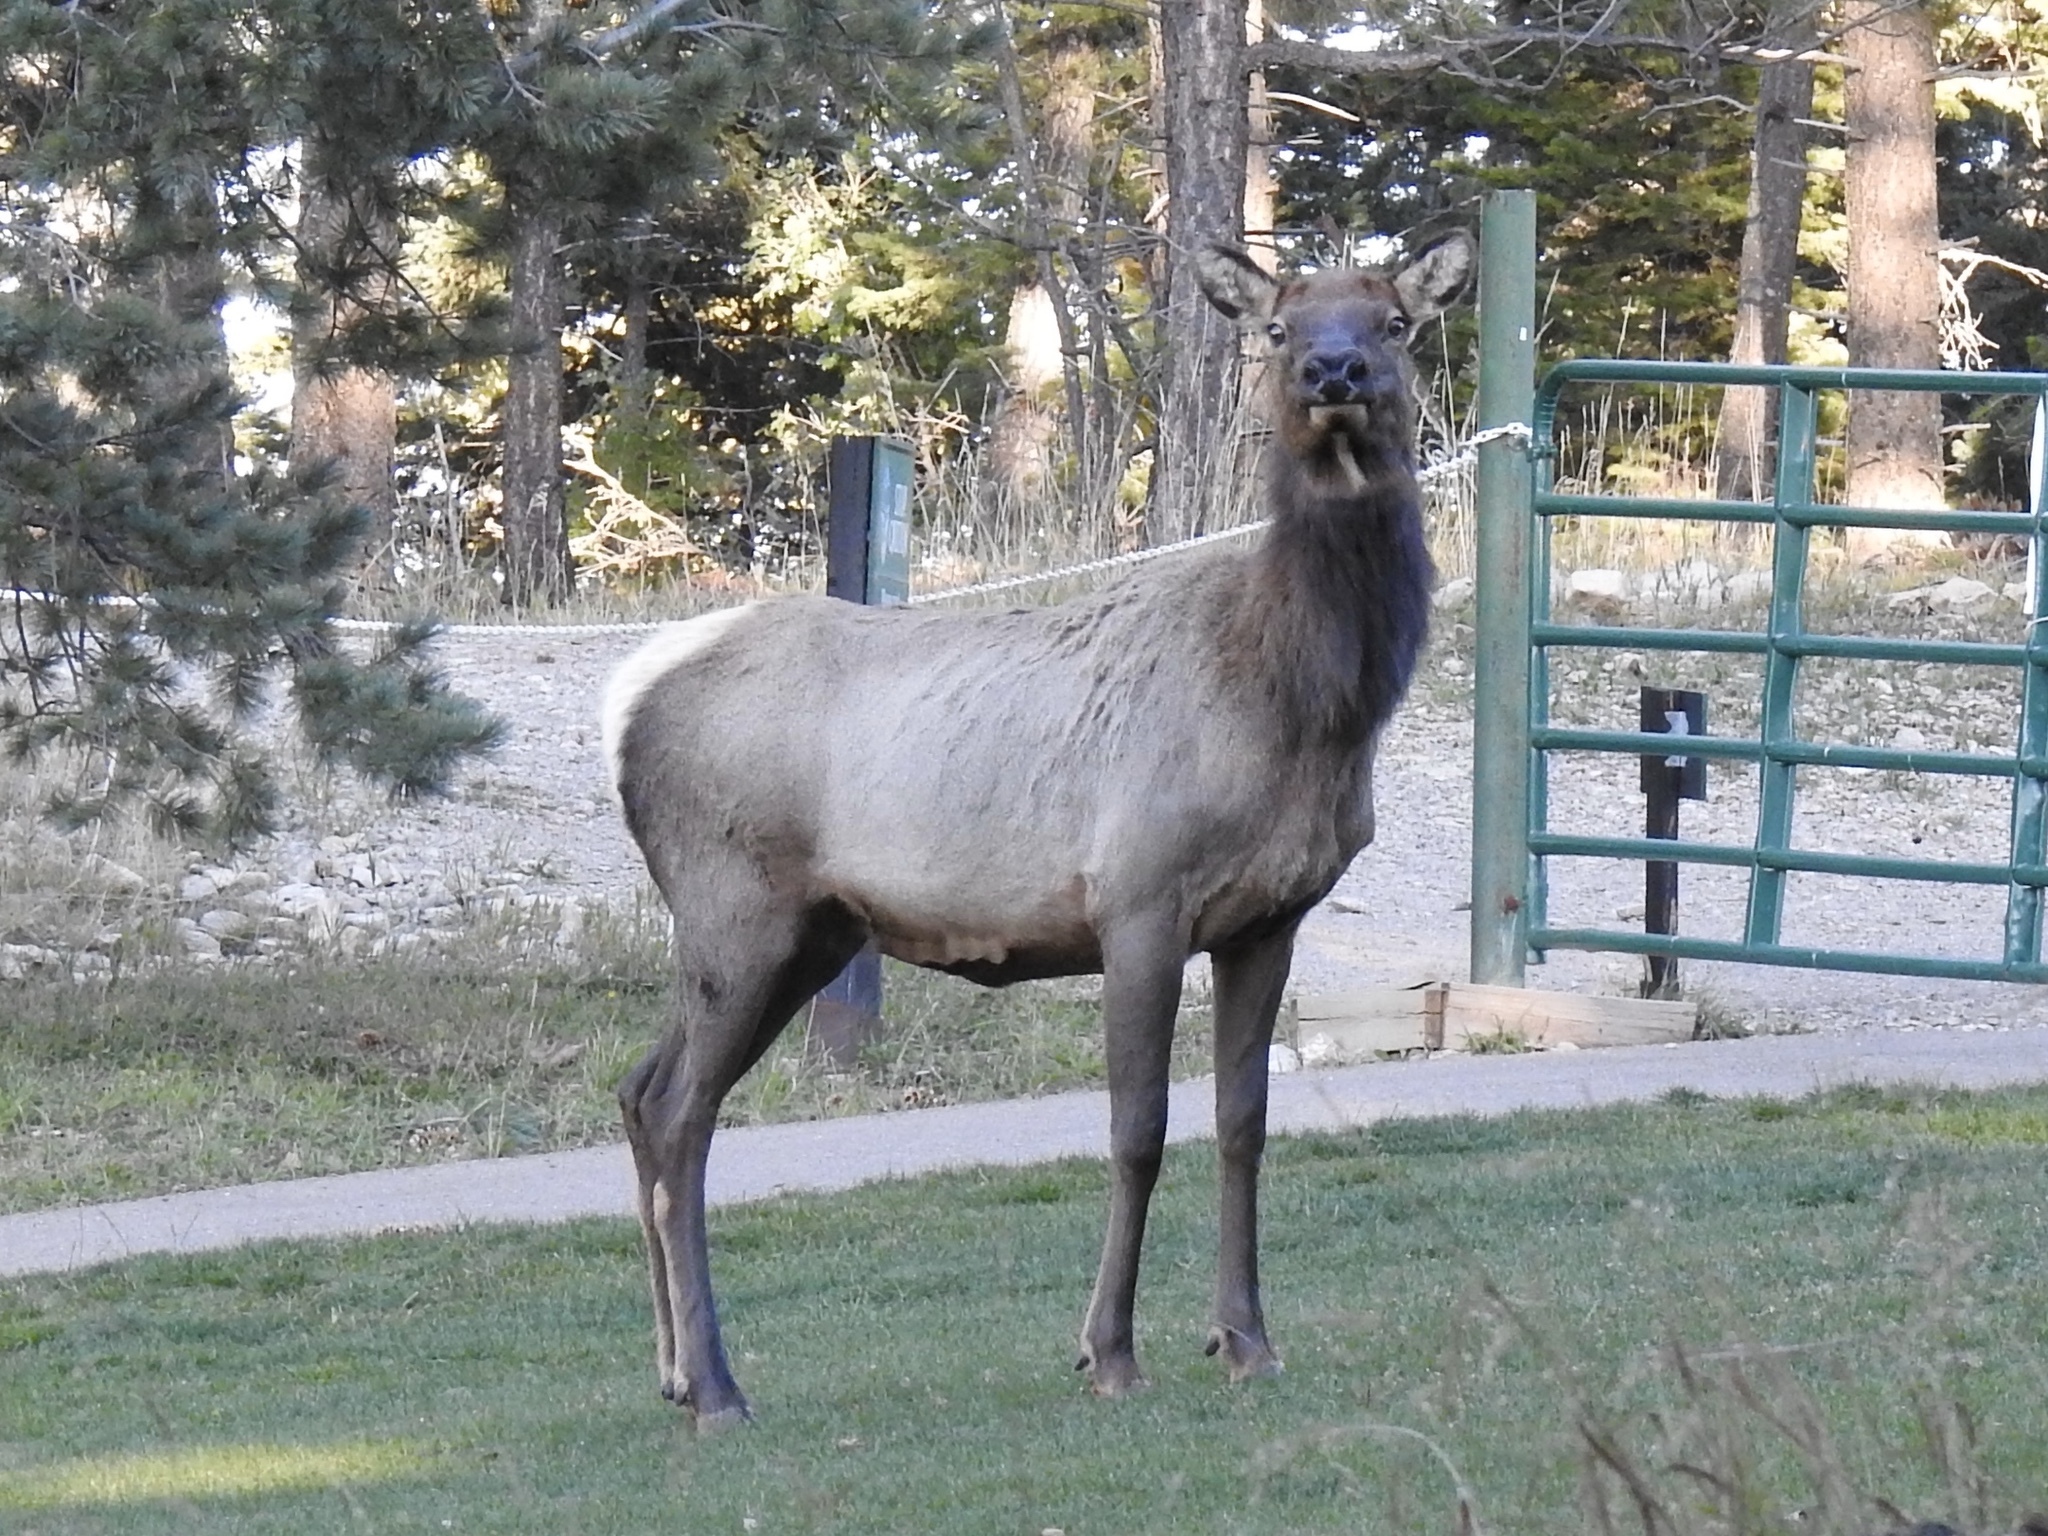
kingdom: Animalia
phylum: Chordata
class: Mammalia
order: Artiodactyla
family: Cervidae
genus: Cervus
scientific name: Cervus elaphus
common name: Red deer
